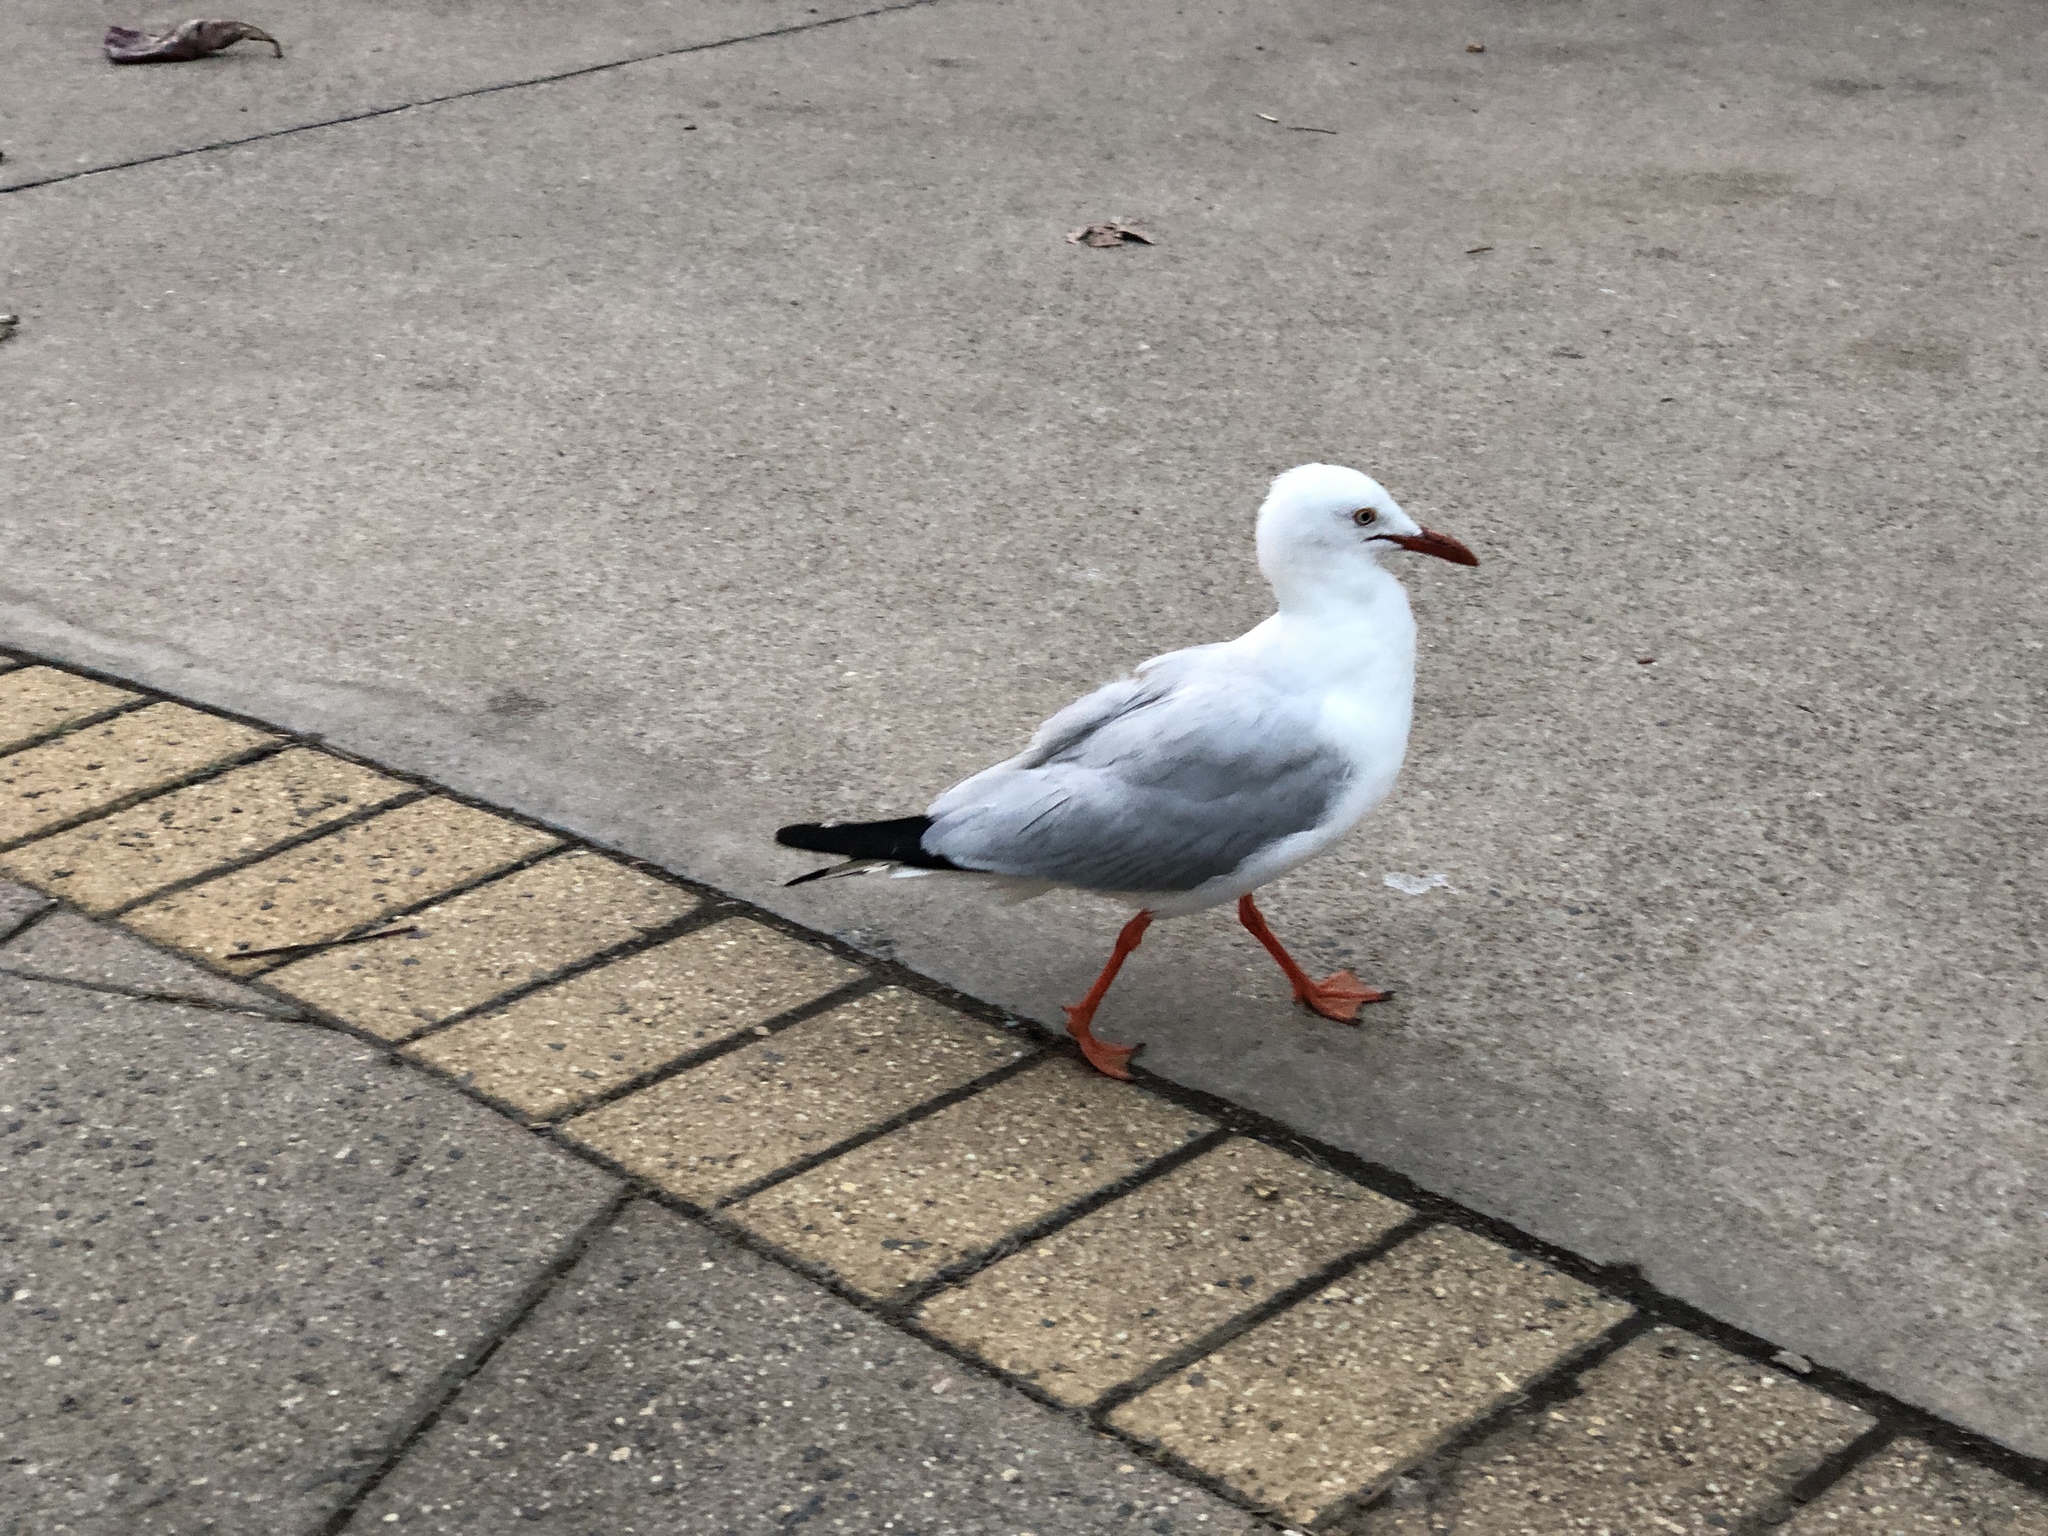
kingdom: Animalia
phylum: Chordata
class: Aves
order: Charadriiformes
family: Laridae
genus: Chroicocephalus
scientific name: Chroicocephalus novaehollandiae
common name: Silver gull
